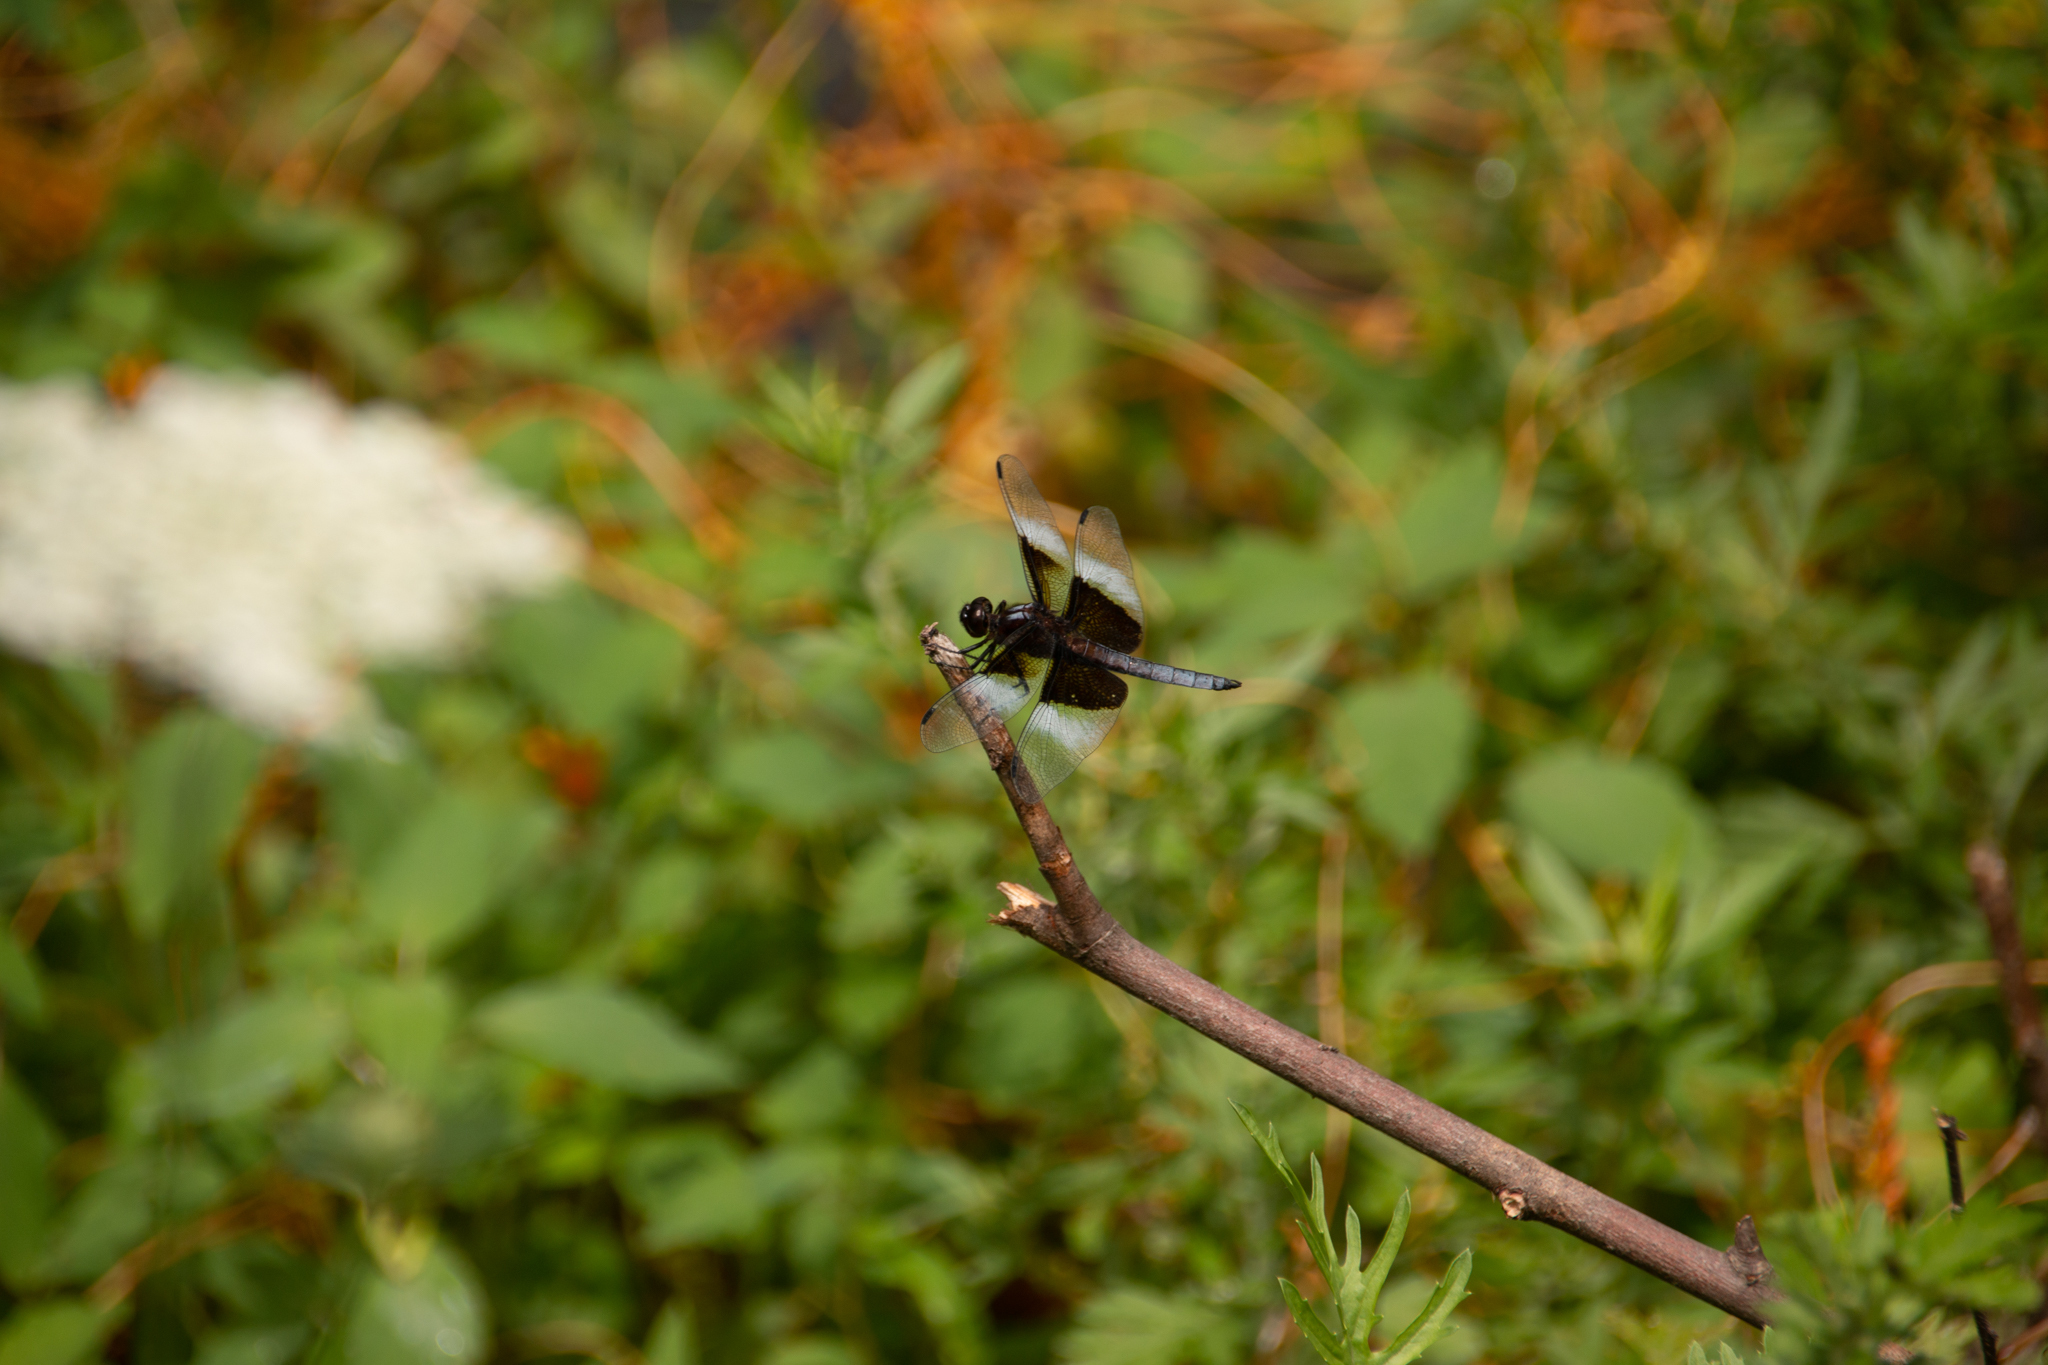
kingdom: Animalia
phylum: Arthropoda
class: Insecta
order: Odonata
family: Libellulidae
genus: Libellula
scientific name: Libellula luctuosa
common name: Widow skimmer
